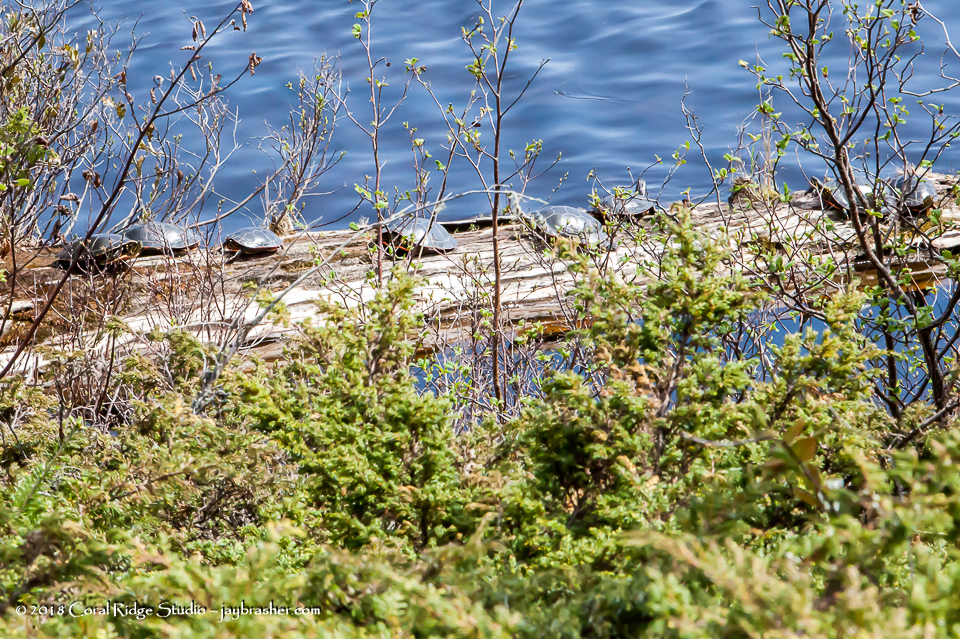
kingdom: Animalia
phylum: Chordata
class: Testudines
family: Emydidae
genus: Chrysemys
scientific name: Chrysemys picta
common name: Painted turtle
